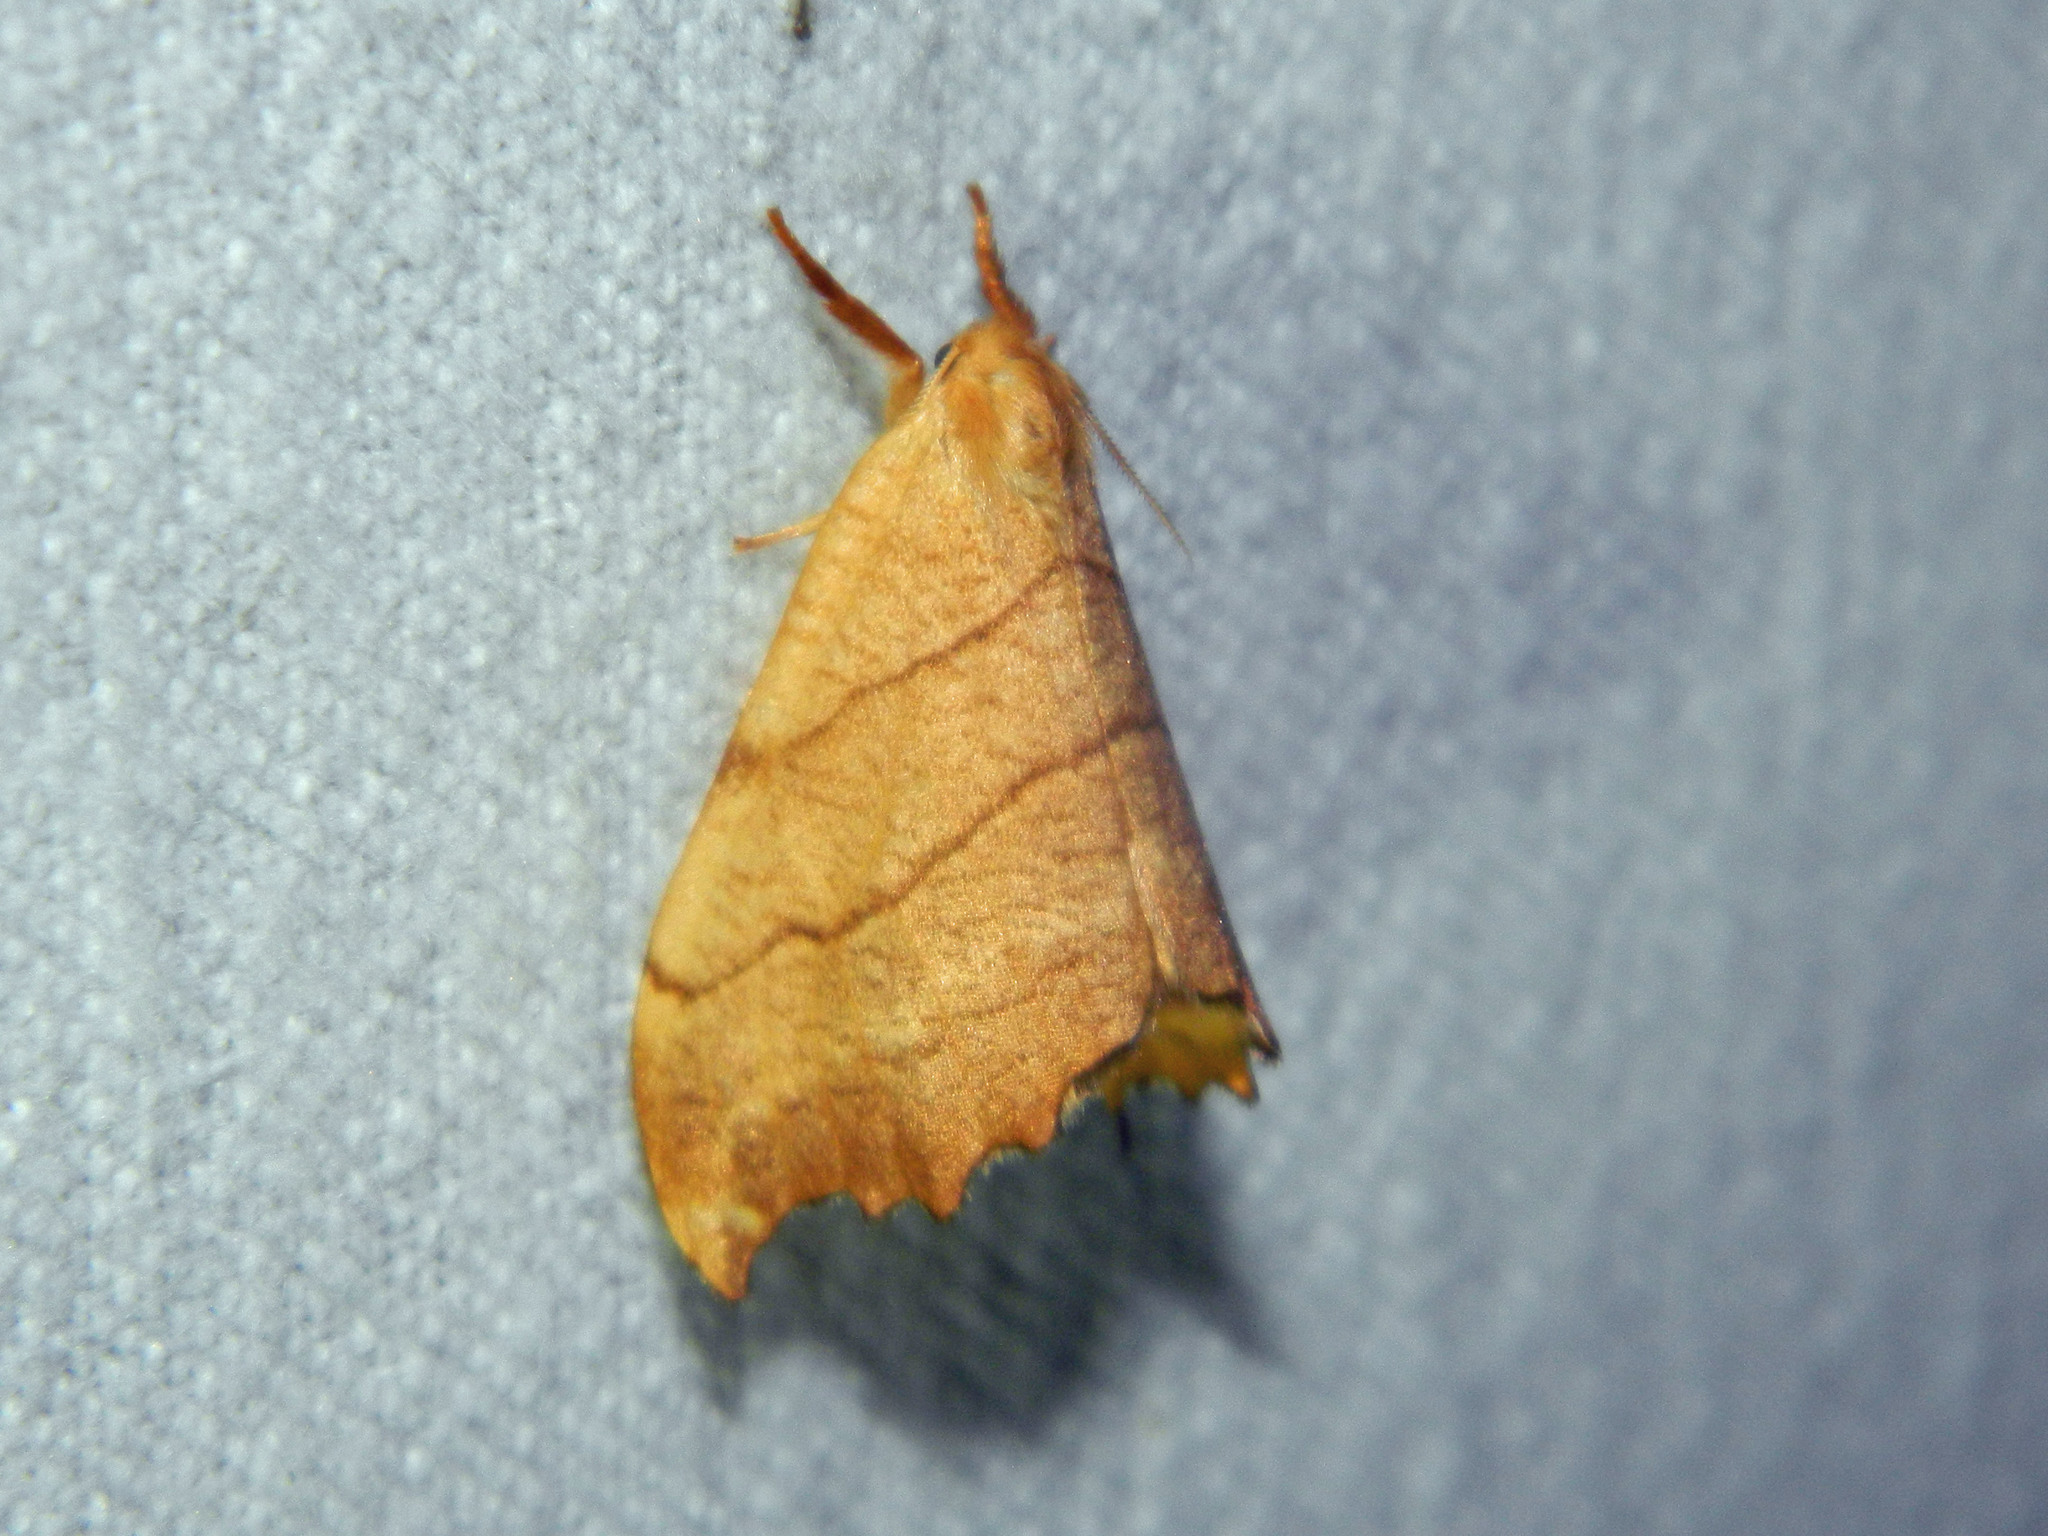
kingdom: Animalia
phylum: Arthropoda
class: Insecta
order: Lepidoptera
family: Drepanidae
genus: Falcaria
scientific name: Falcaria bilineata
